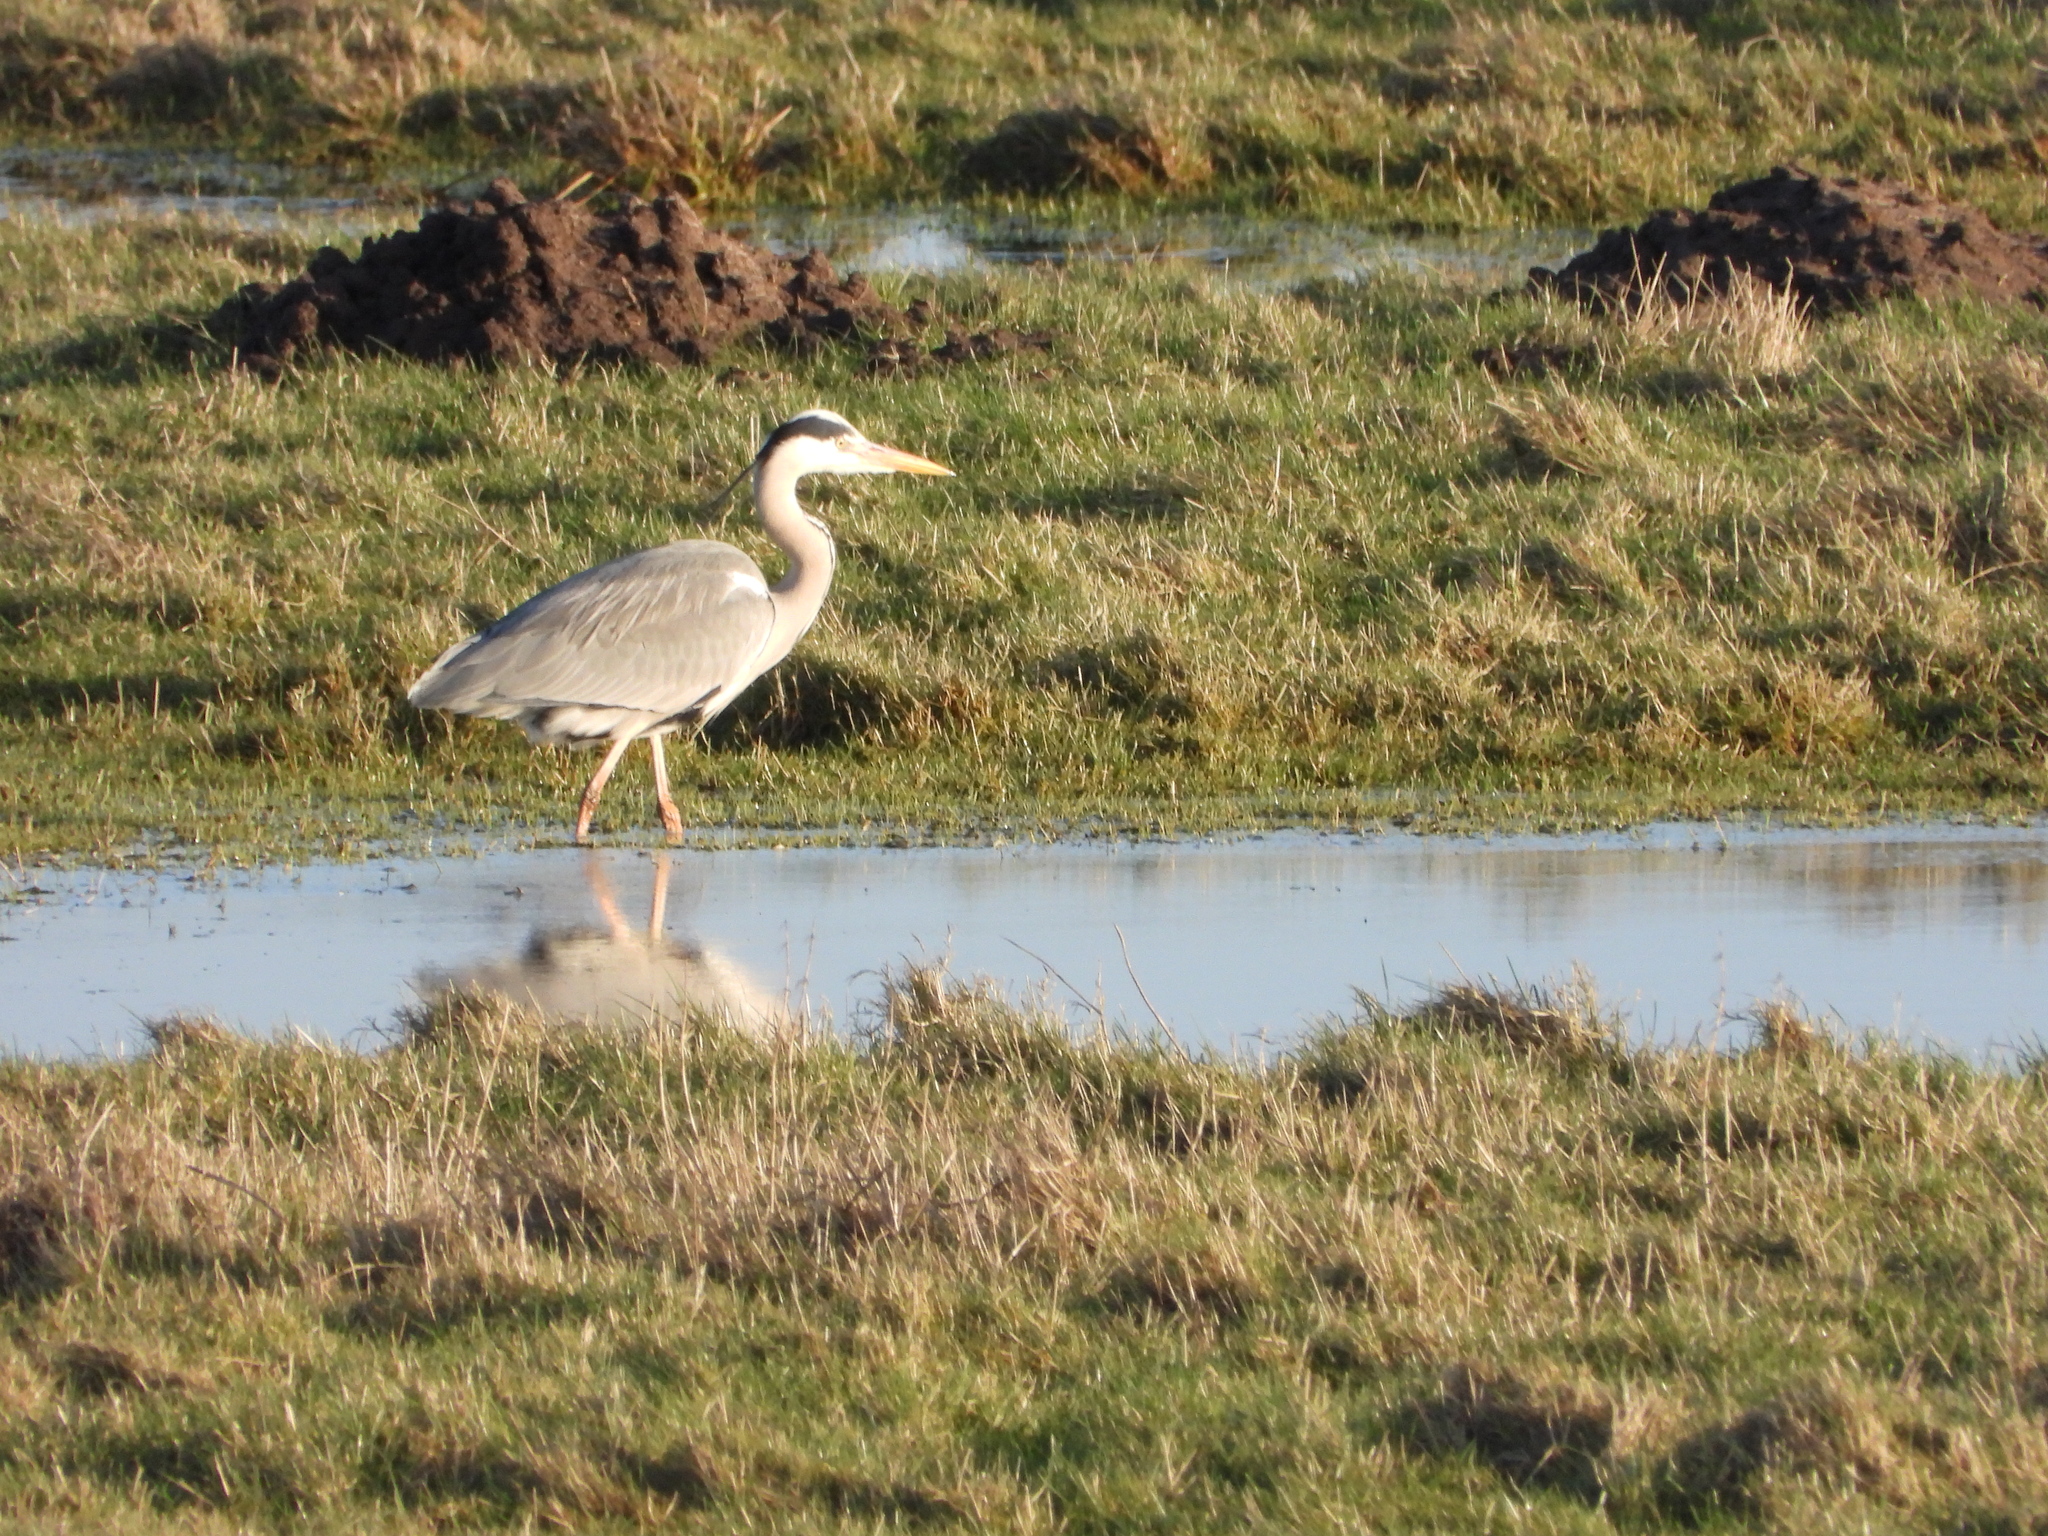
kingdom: Animalia
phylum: Chordata
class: Aves
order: Pelecaniformes
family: Ardeidae
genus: Ardea
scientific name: Ardea cinerea
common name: Grey heron
